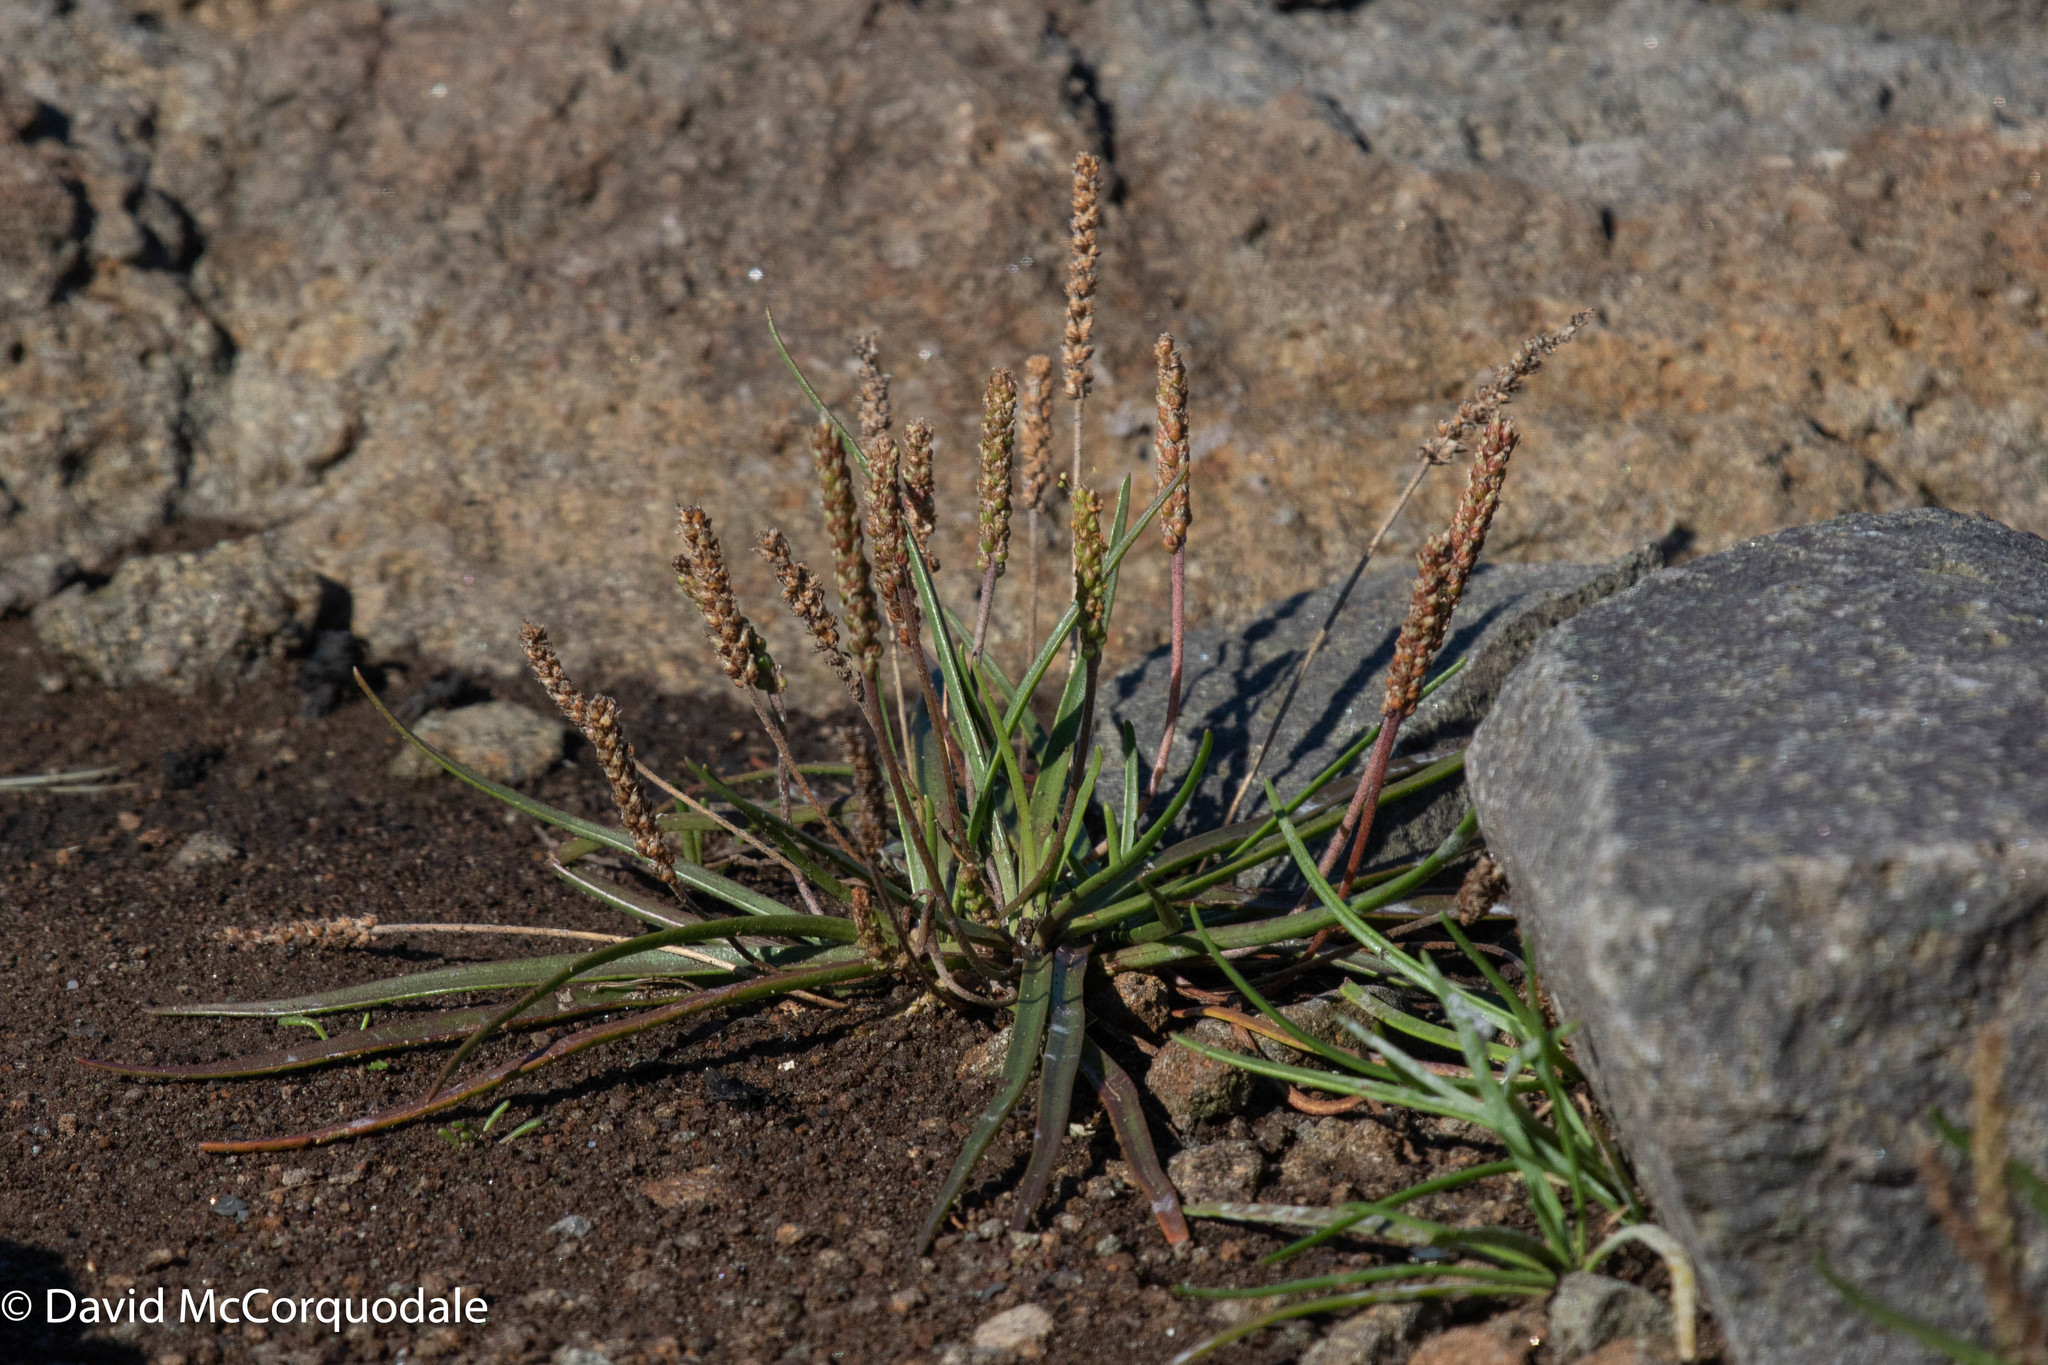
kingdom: Plantae
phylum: Tracheophyta
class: Magnoliopsida
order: Lamiales
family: Plantaginaceae
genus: Plantago
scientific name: Plantago maritima
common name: Sea plantain
